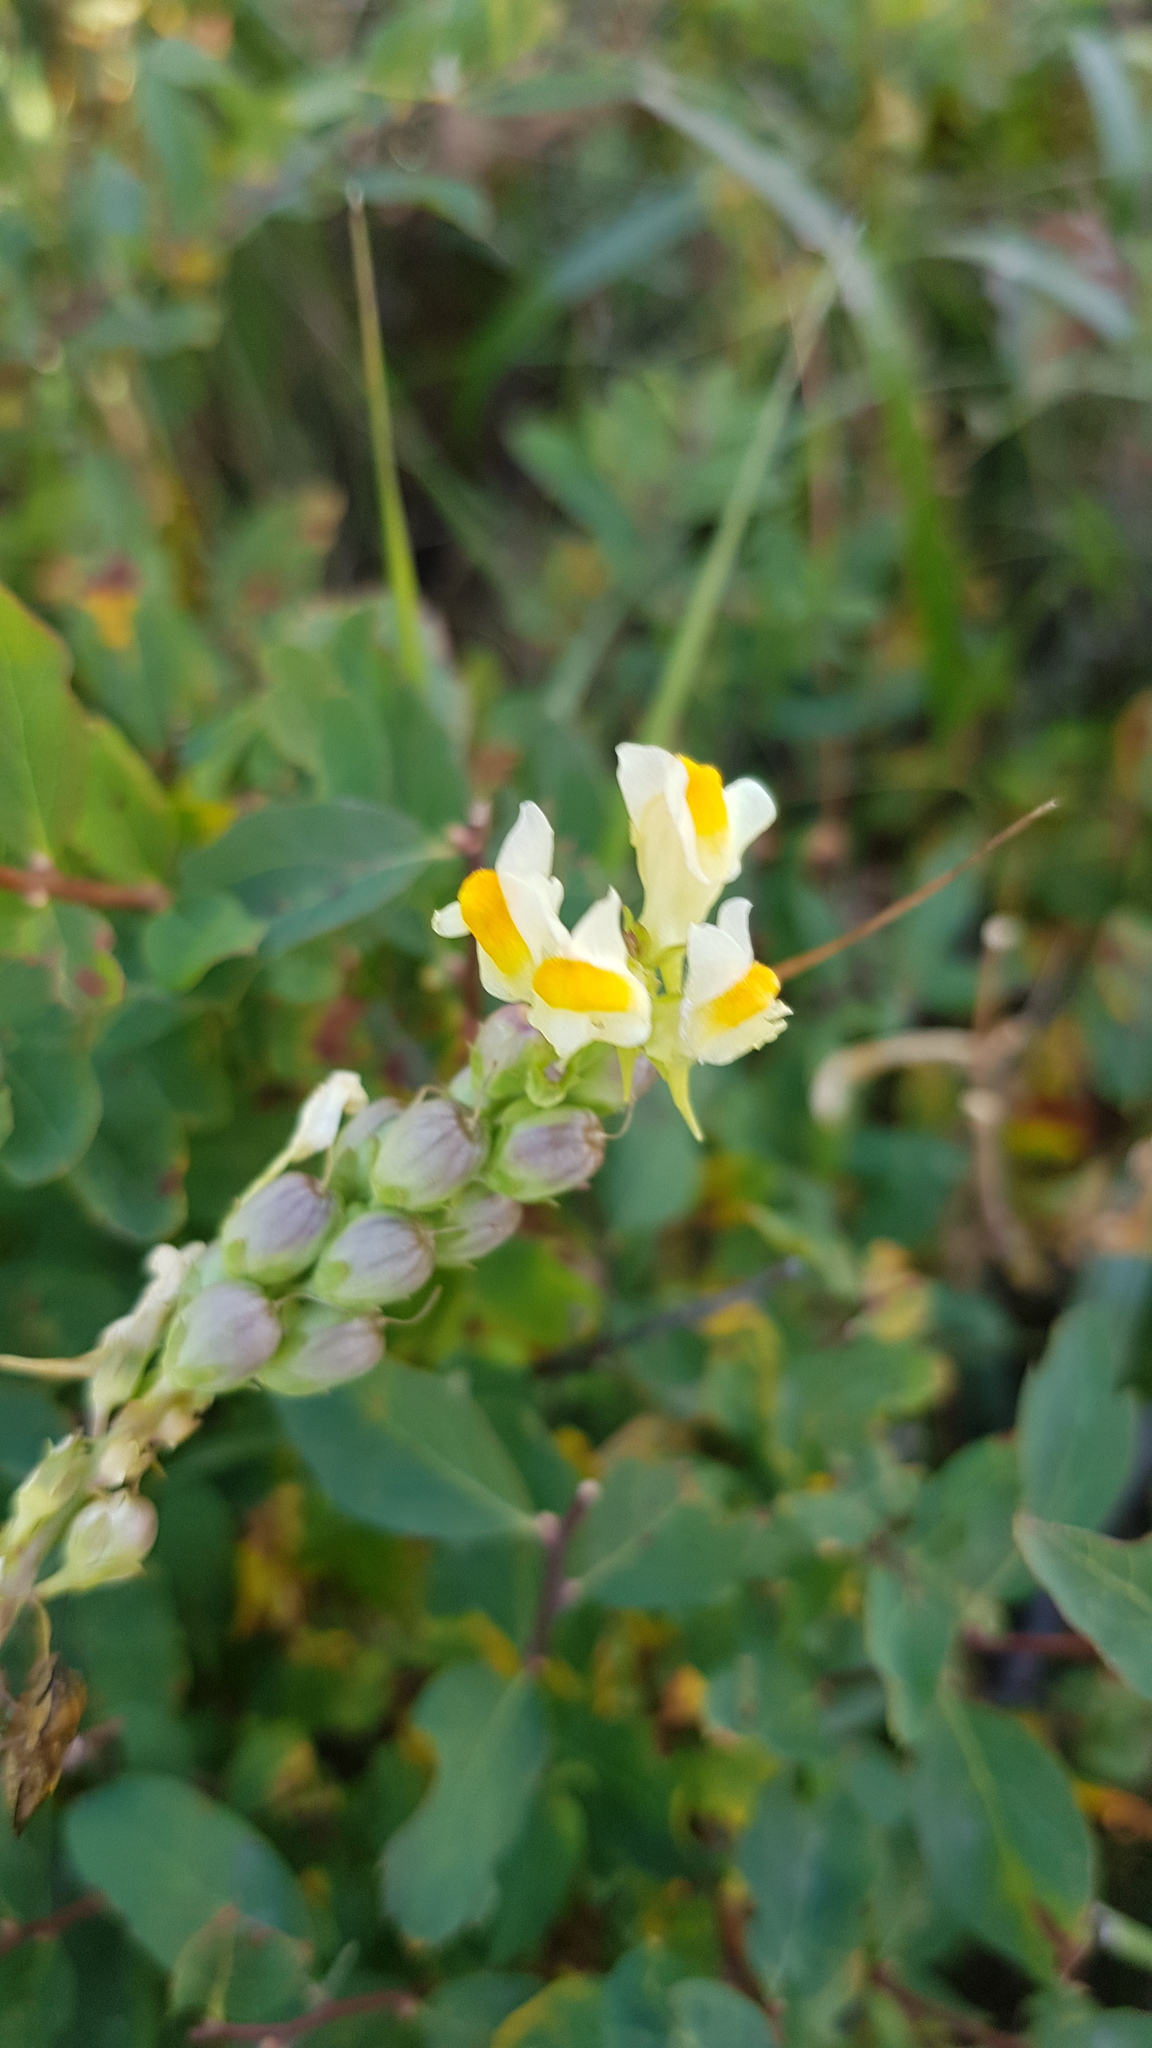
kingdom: Plantae
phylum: Tracheophyta
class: Magnoliopsida
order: Lamiales
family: Plantaginaceae
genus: Linaria
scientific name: Linaria vulgaris
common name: Butter and eggs
